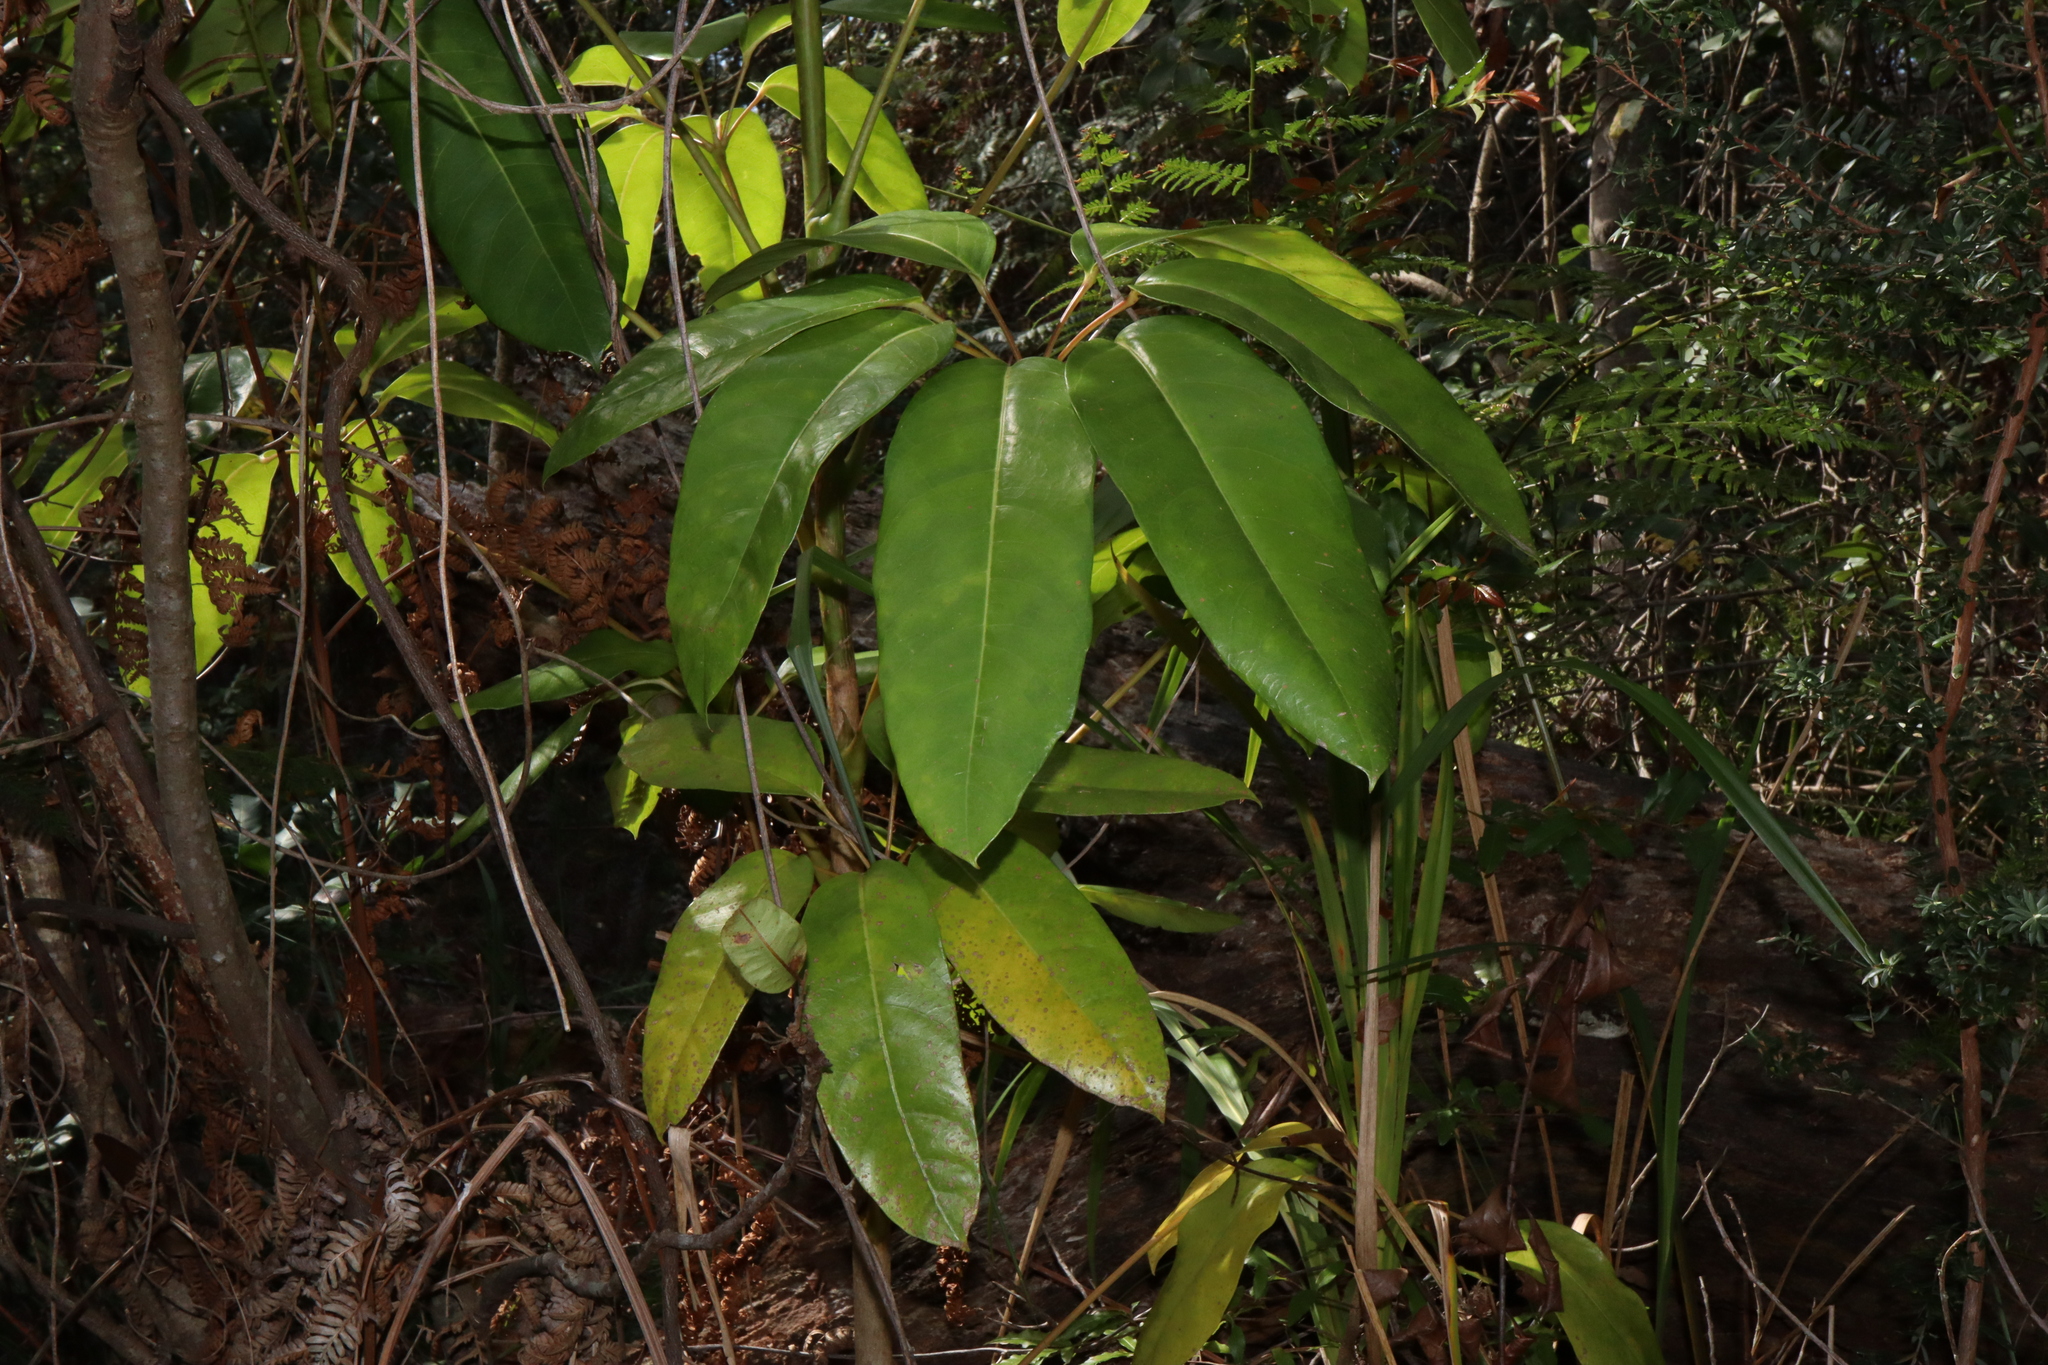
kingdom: Plantae
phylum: Tracheophyta
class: Magnoliopsida
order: Apiales
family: Araliaceae
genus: Heptapleurum
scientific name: Heptapleurum actinophyllum
